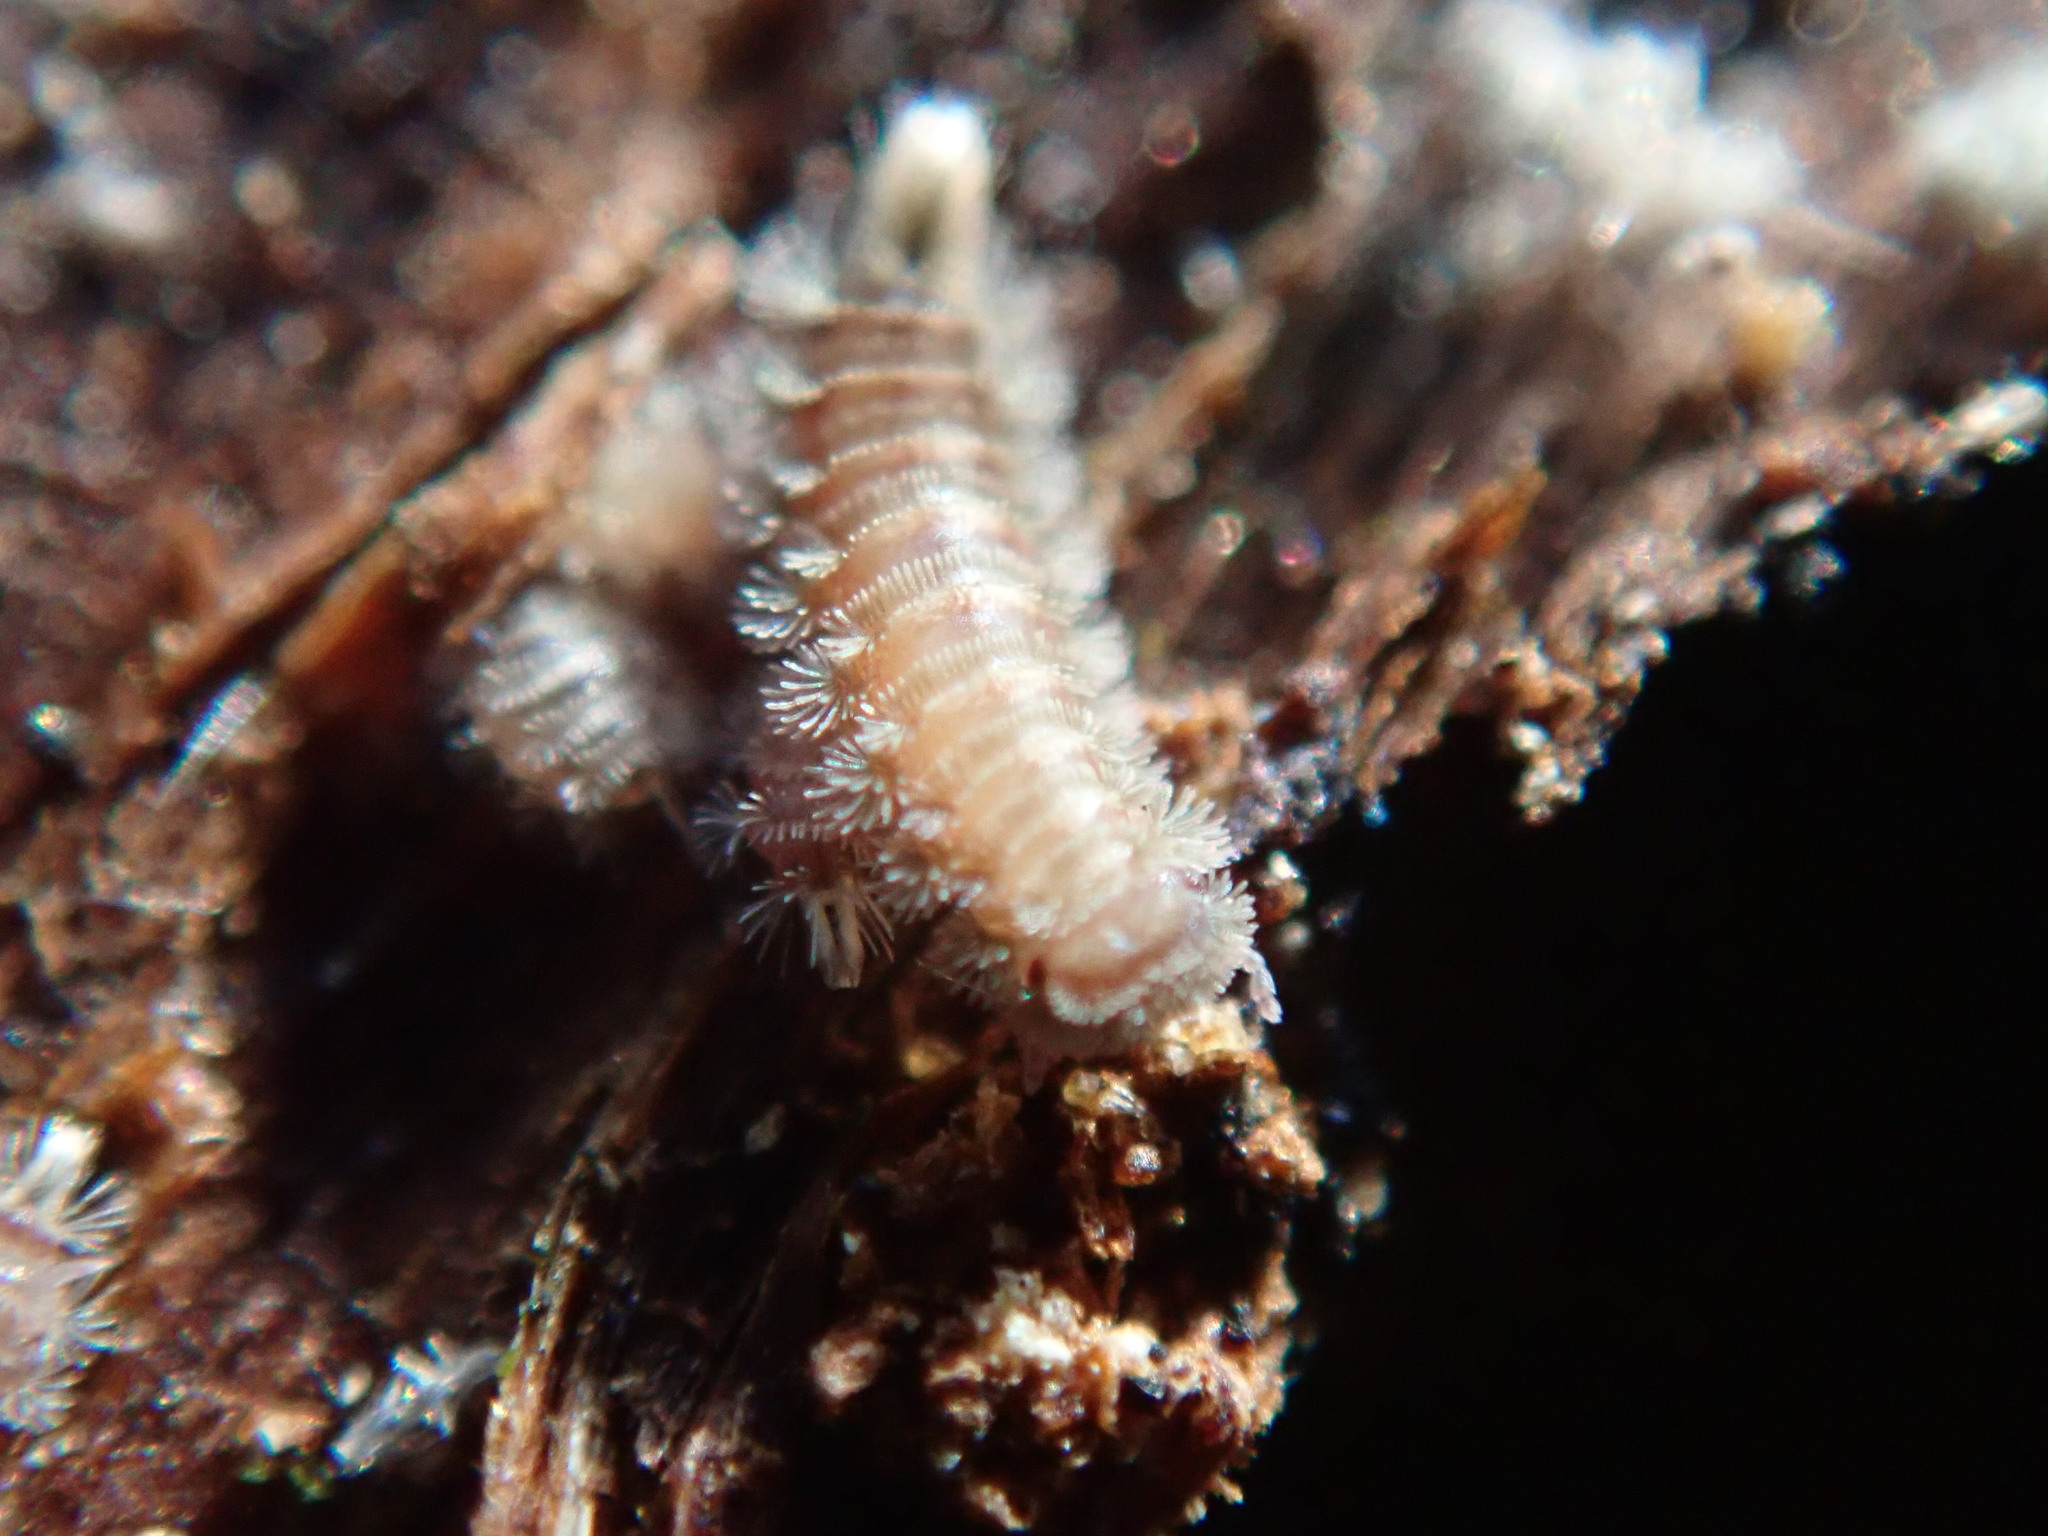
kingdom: Animalia
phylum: Arthropoda
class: Diplopoda
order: Polyxenida
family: Polyxenidae
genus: Polyxenus
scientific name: Polyxenus lagurus
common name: Bristly millipede
